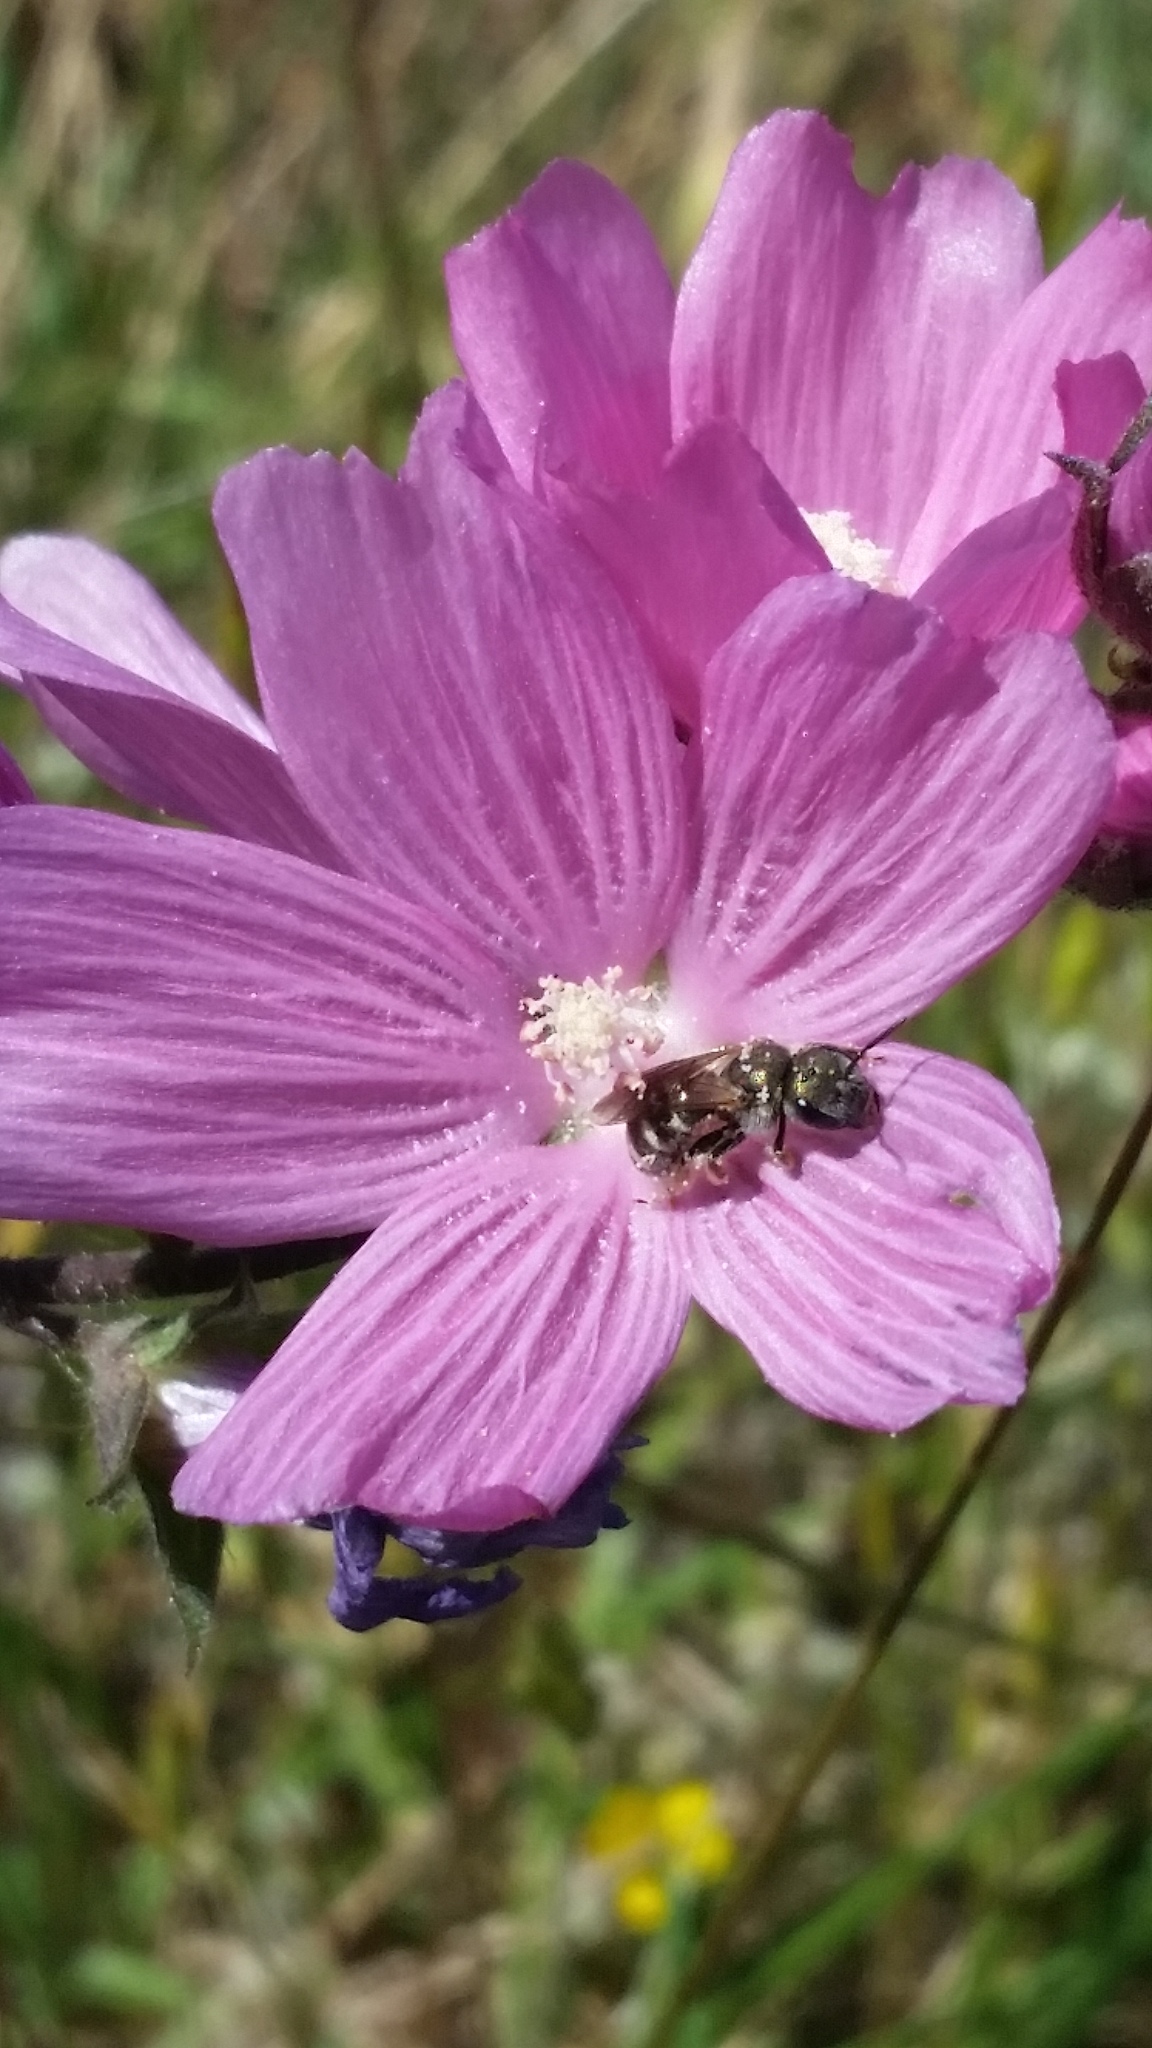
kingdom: Animalia
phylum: Arthropoda
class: Insecta
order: Hymenoptera
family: Halictidae
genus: Halictus
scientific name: Halictus tripartitus
